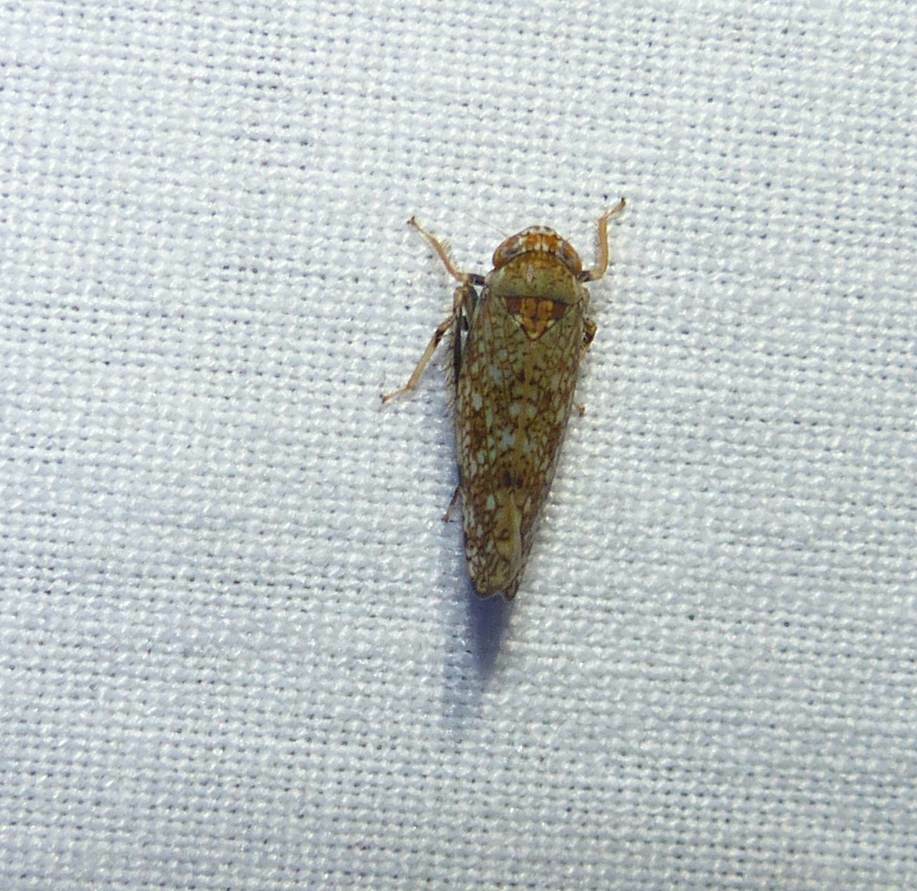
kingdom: Animalia
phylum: Arthropoda
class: Insecta
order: Hemiptera
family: Cicadellidae
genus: Orientus
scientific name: Orientus ishidae
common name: Japanese leafhopper
